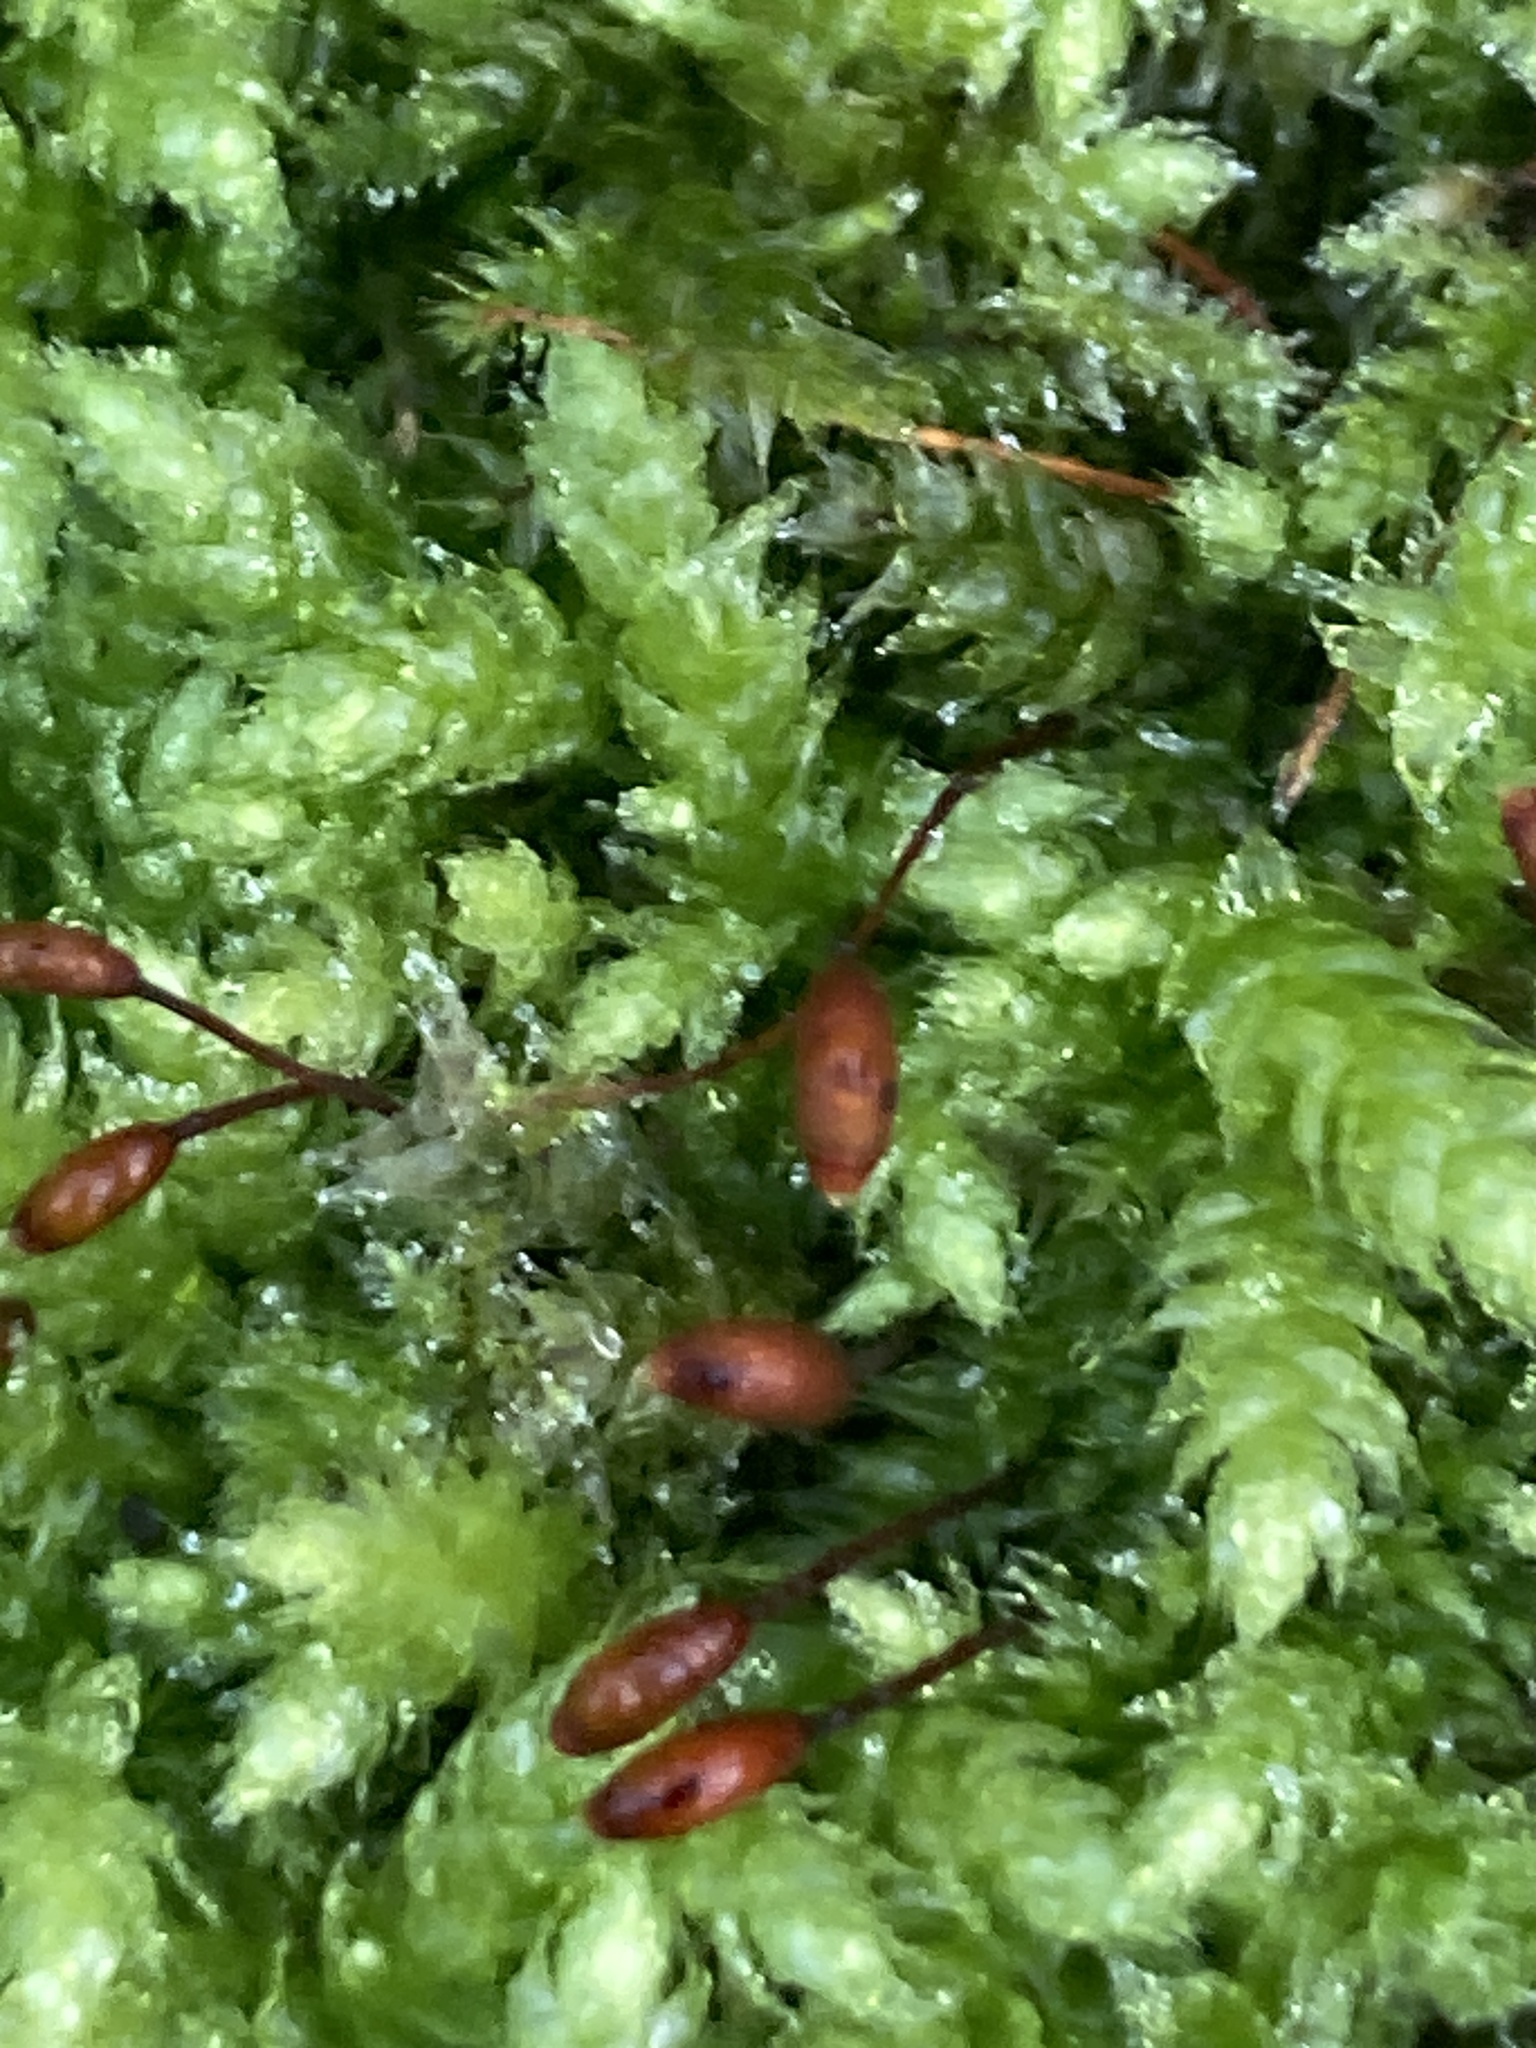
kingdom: Plantae
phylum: Bryophyta
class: Bryopsida
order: Hypnales
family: Brachytheciaceae
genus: Brachythecium
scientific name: Brachythecium rutabulum
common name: Rough-stalked feather-moss
